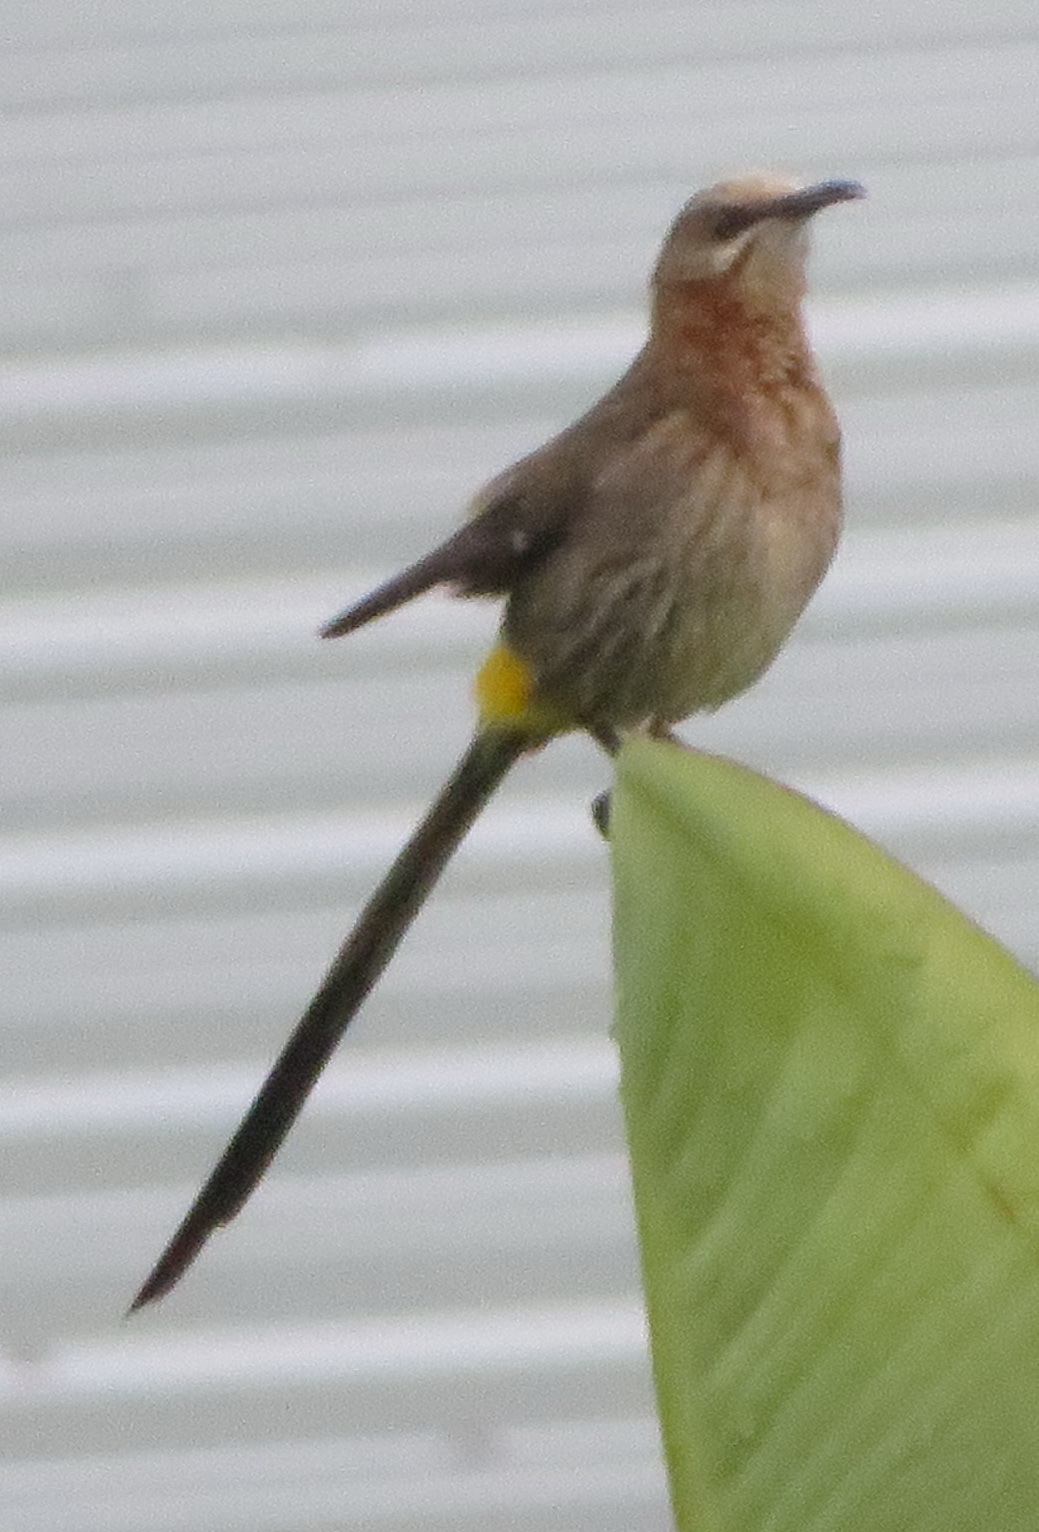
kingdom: Animalia
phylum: Chordata
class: Aves
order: Passeriformes
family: Promeropidae
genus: Promerops
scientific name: Promerops cafer
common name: Cape sugarbird
